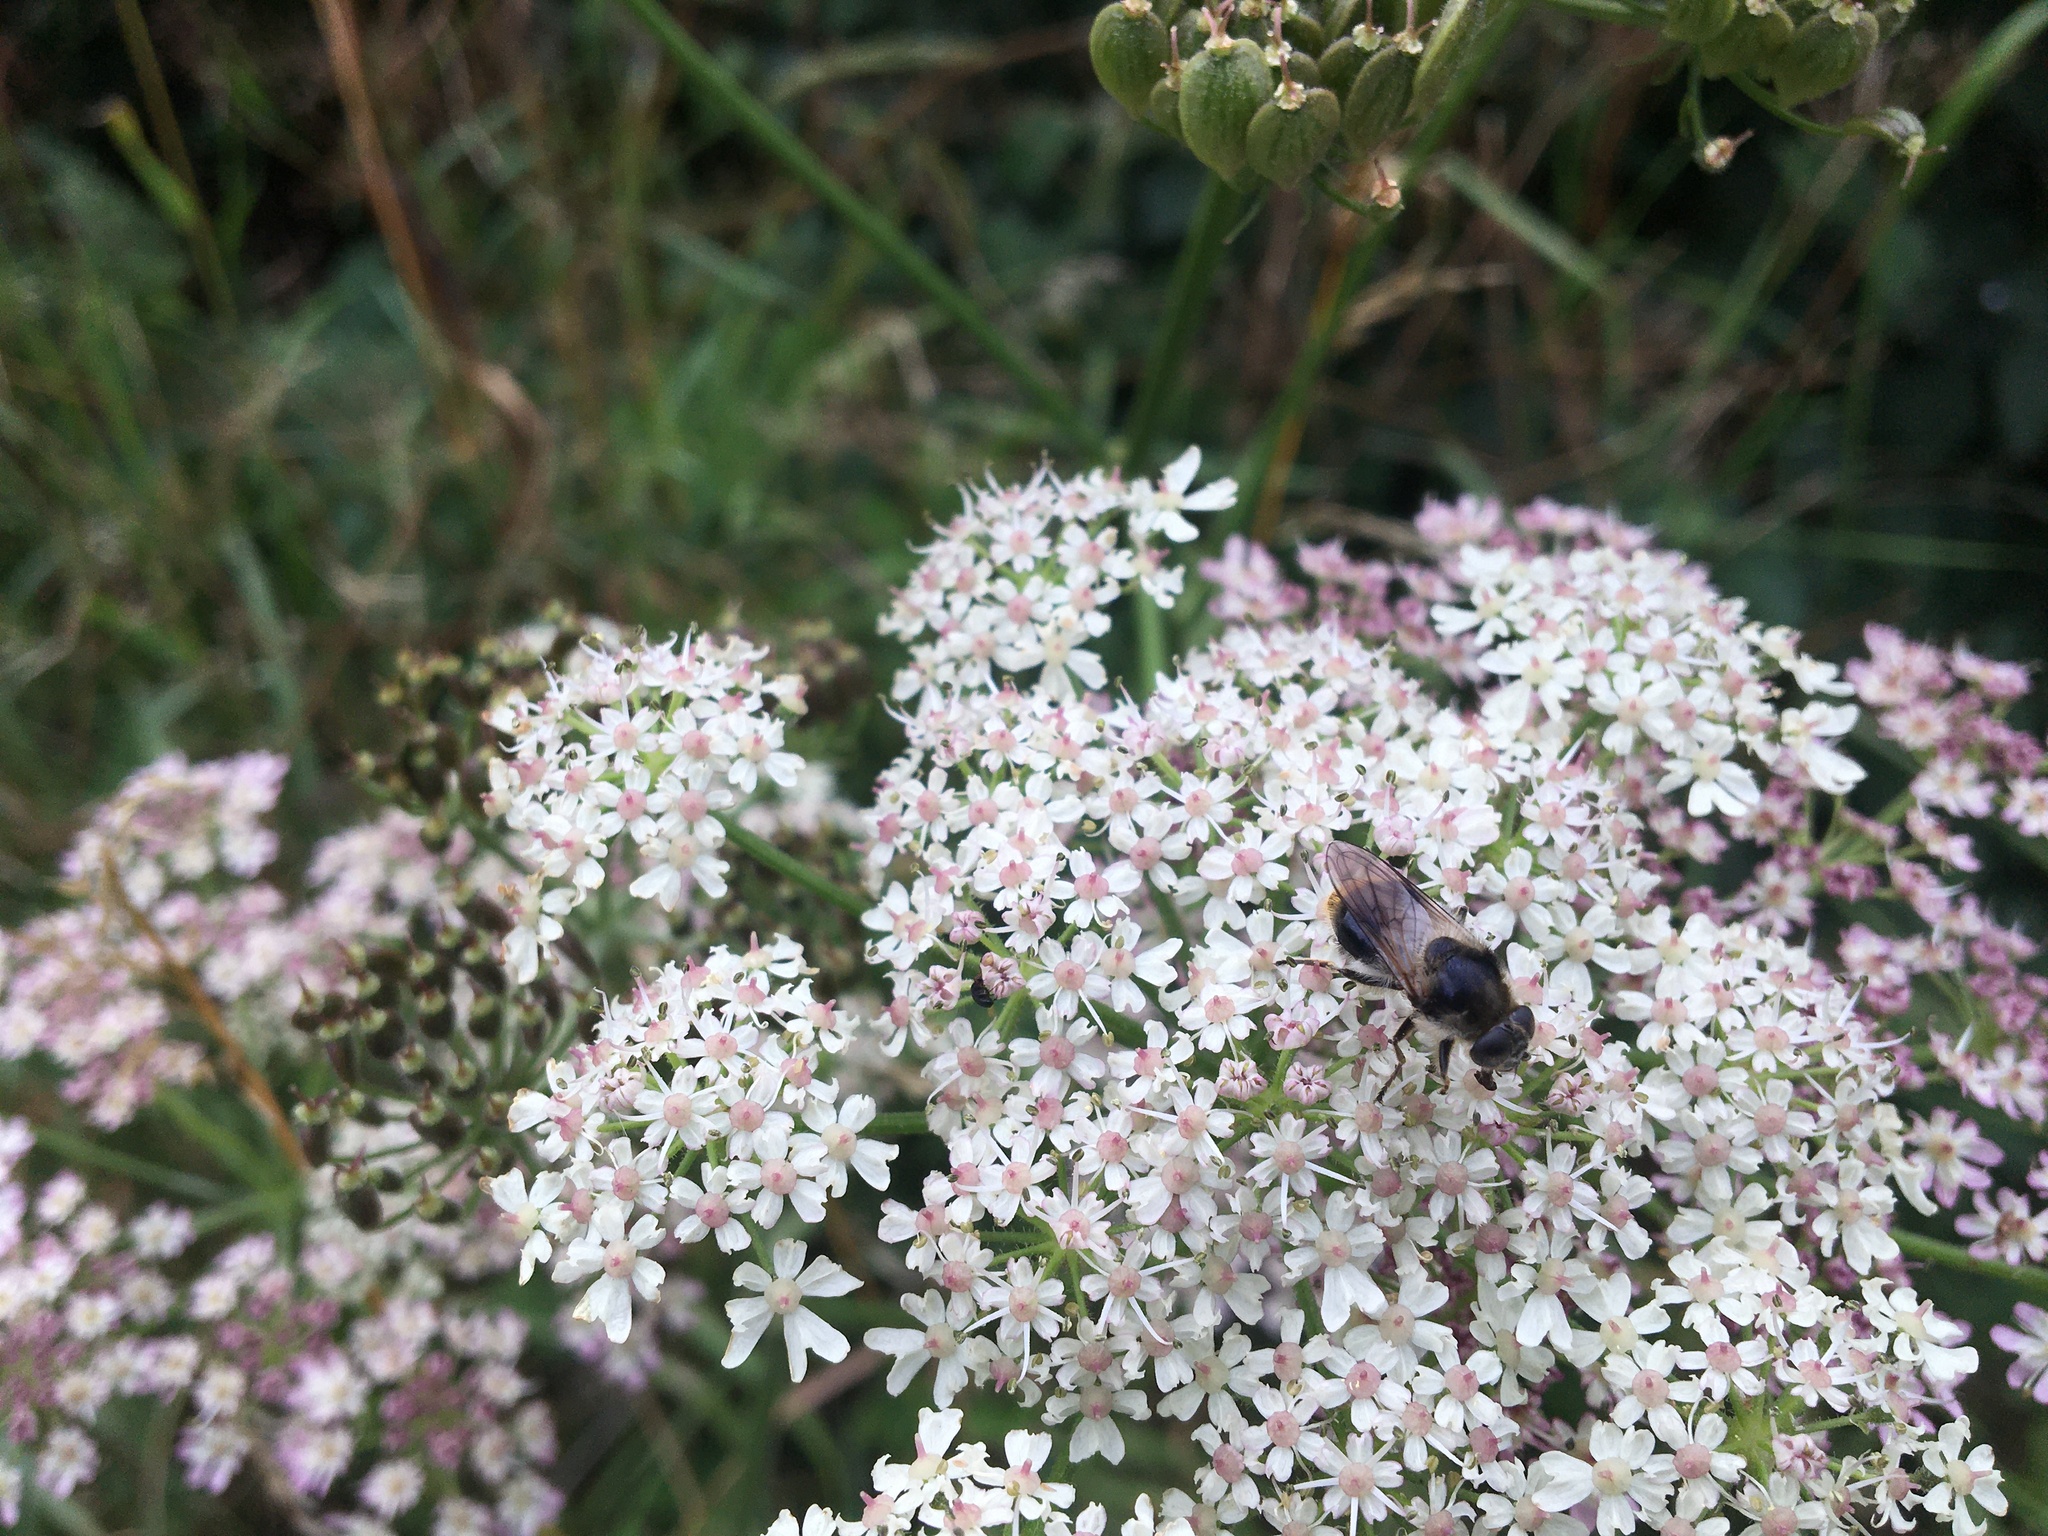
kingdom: Animalia
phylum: Arthropoda
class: Insecta
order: Diptera
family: Syrphidae
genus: Cheilosia
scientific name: Cheilosia illustrata
